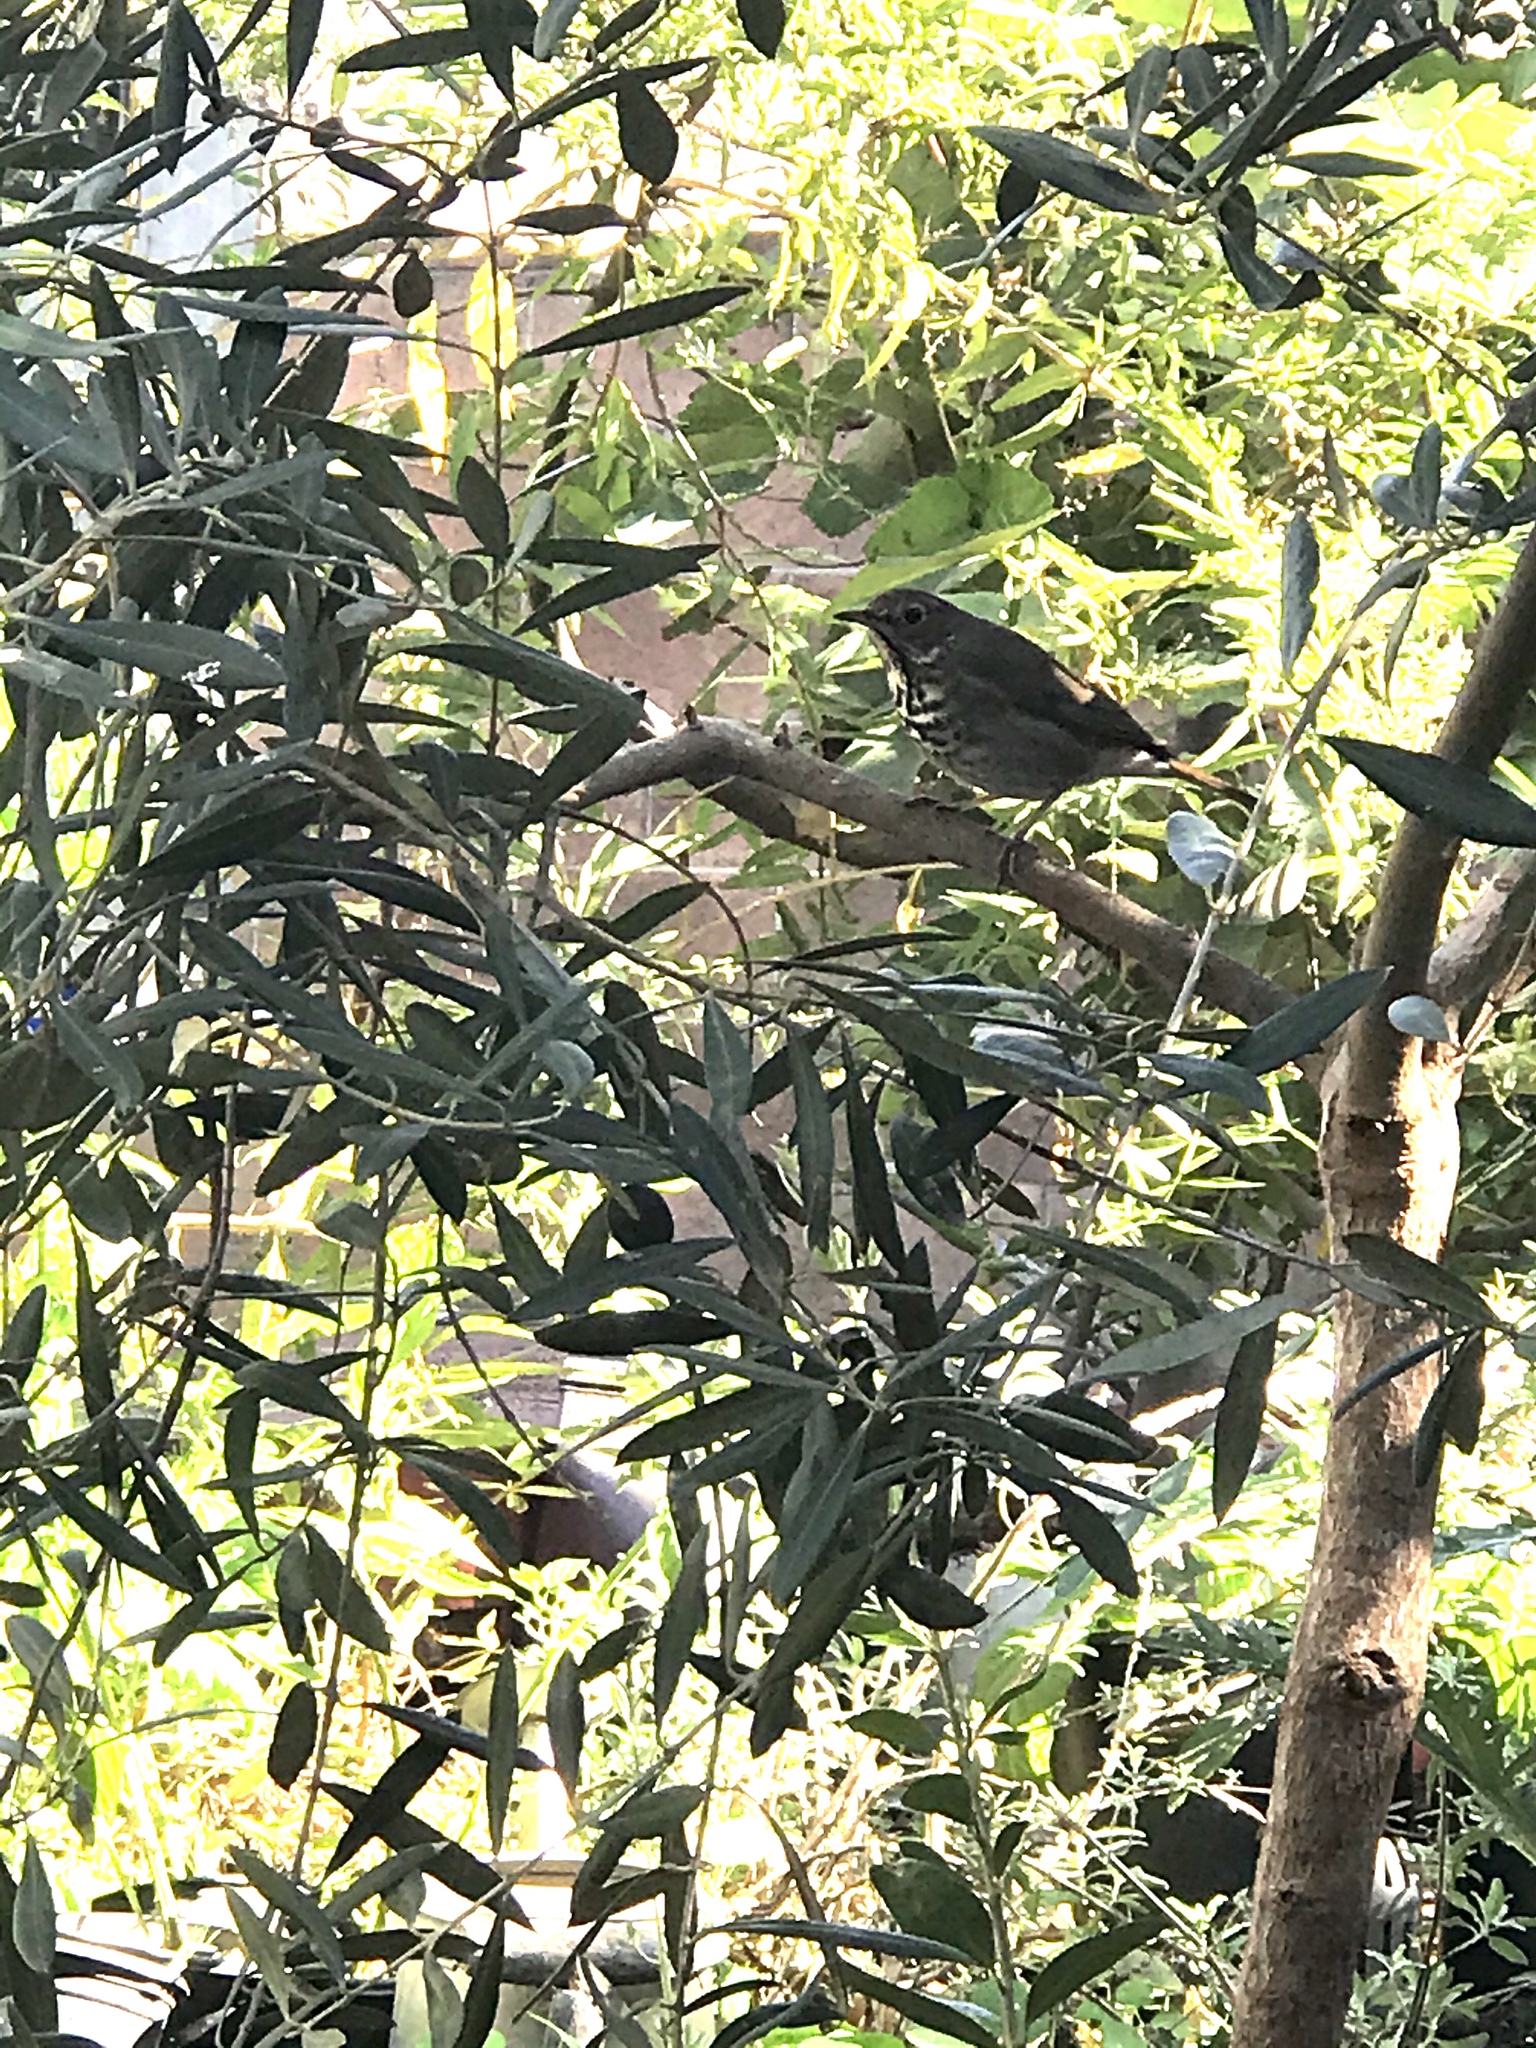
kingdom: Animalia
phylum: Chordata
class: Aves
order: Passeriformes
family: Turdidae
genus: Catharus
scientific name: Catharus guttatus
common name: Hermit thrush
